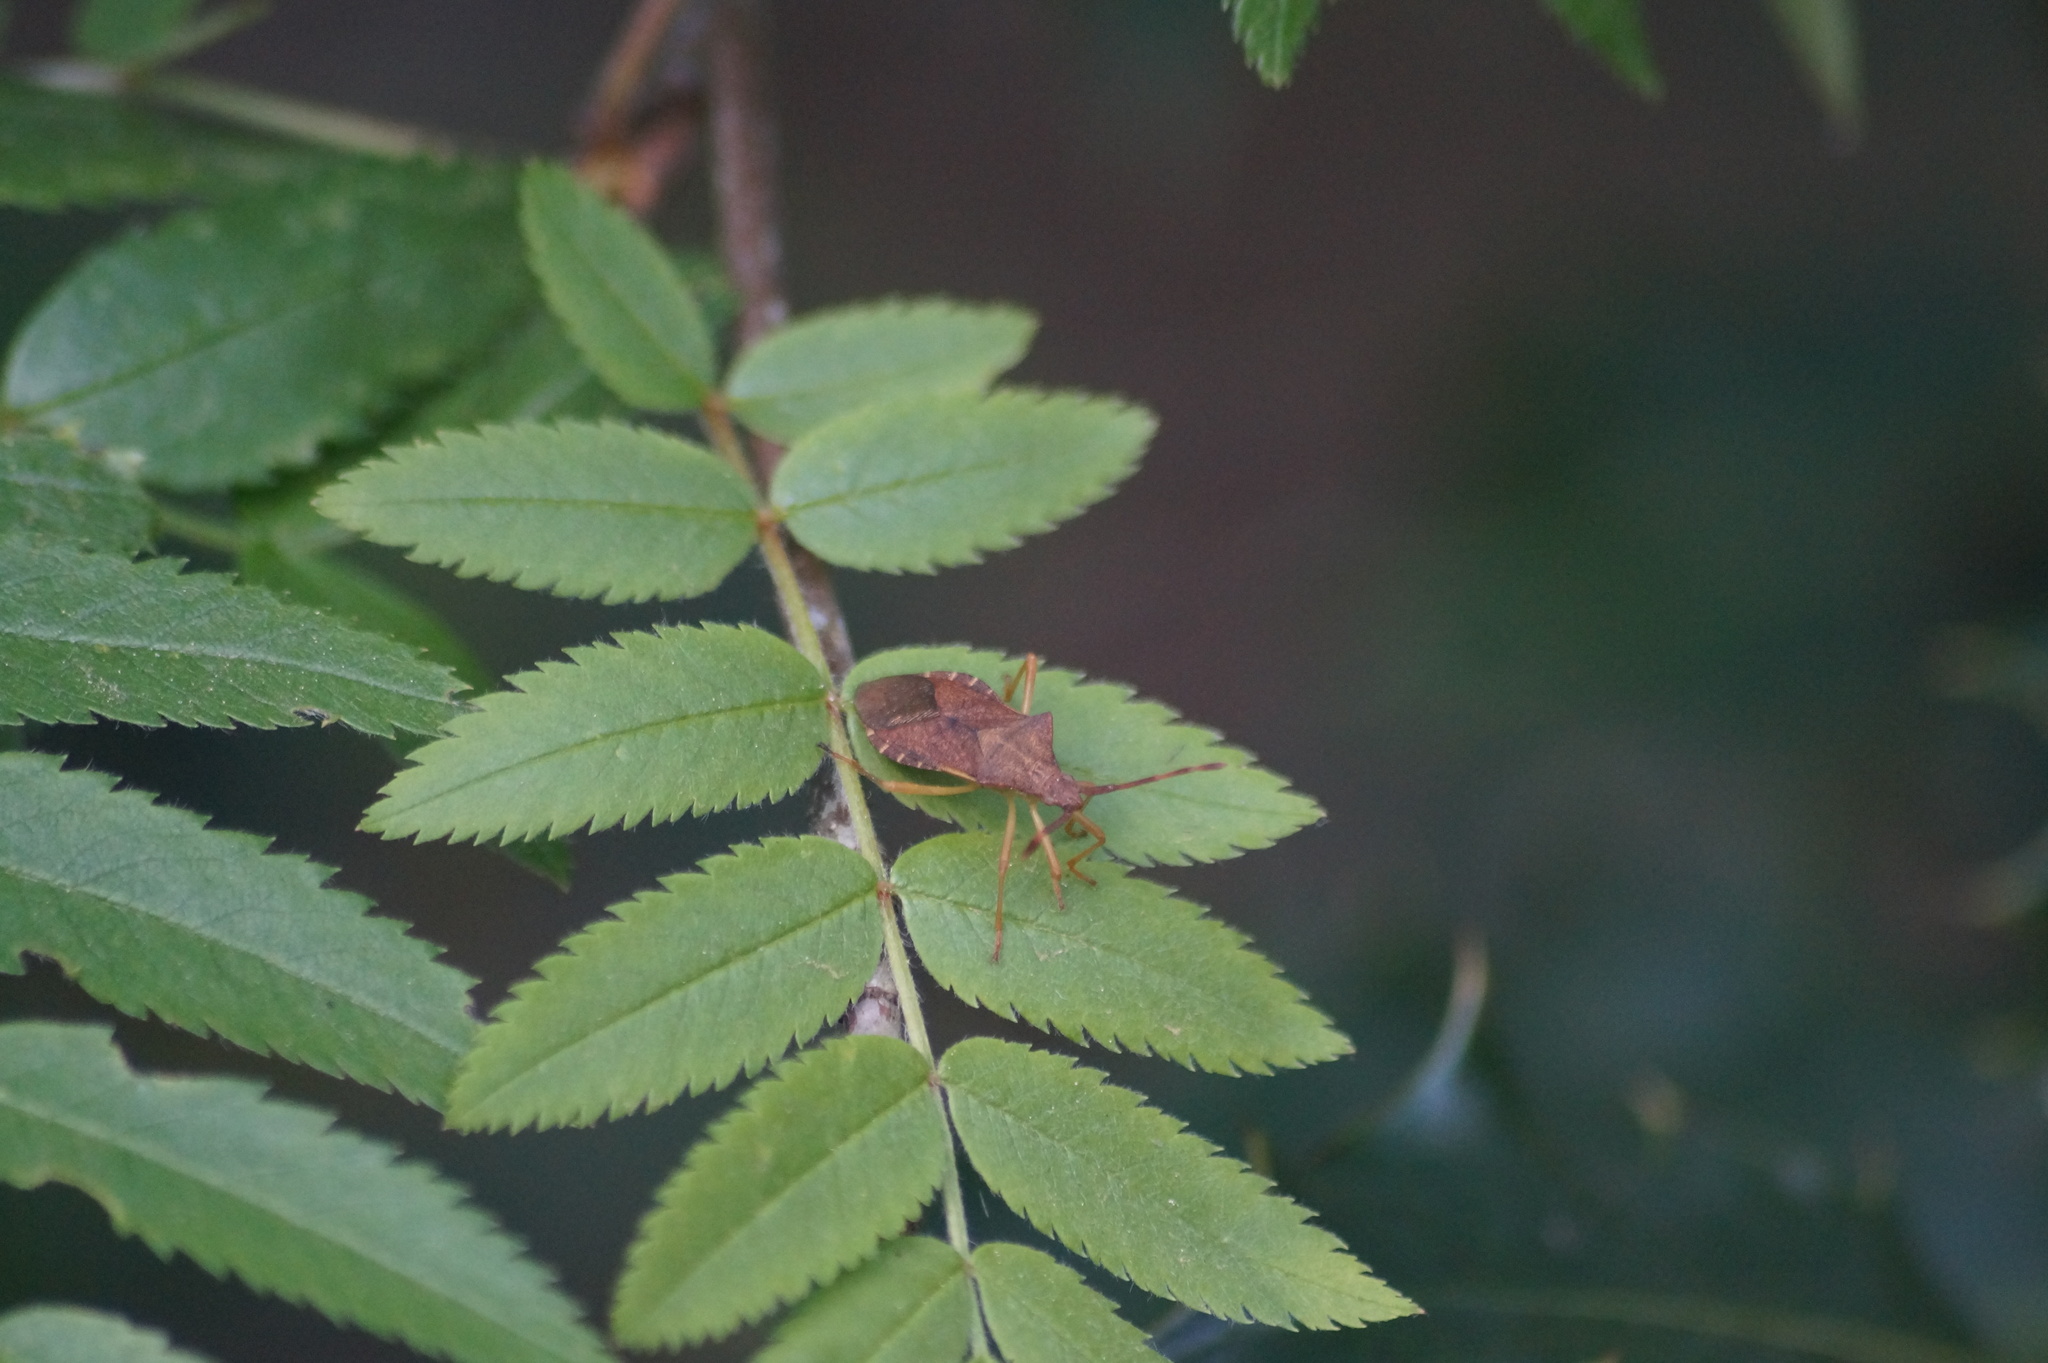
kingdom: Animalia
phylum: Arthropoda
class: Insecta
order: Hemiptera
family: Coreidae
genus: Gonocerus
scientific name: Gonocerus acuteangulatus
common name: Box bug
